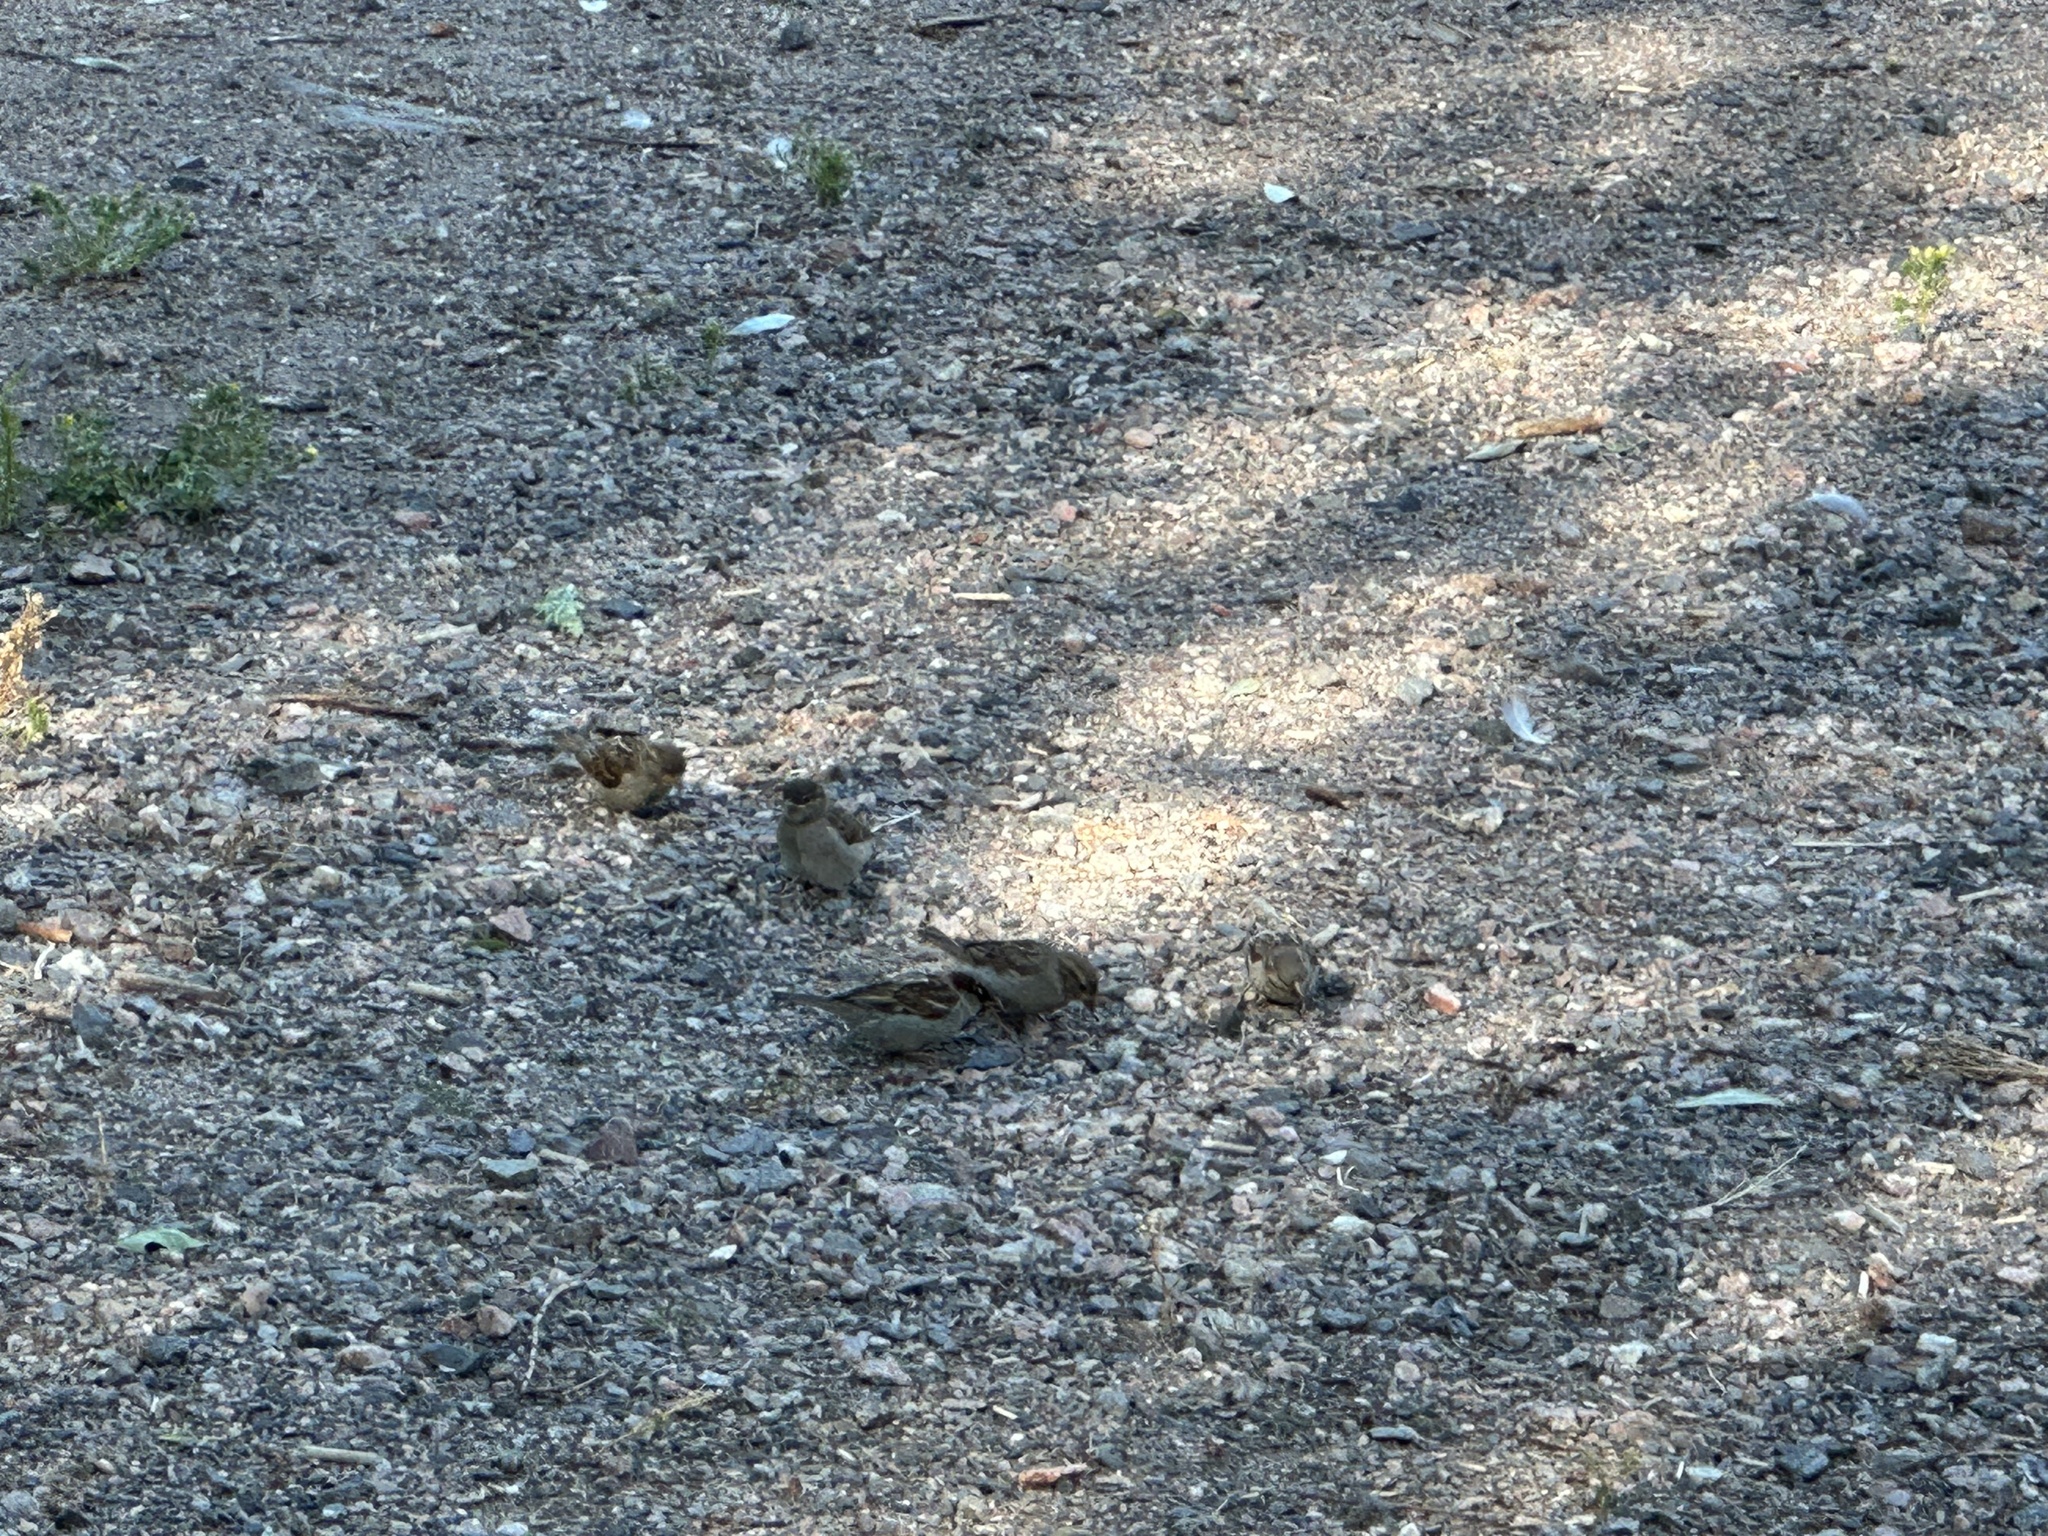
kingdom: Animalia
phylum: Chordata
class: Aves
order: Passeriformes
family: Passeridae
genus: Passer
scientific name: Passer domesticus
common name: House sparrow
